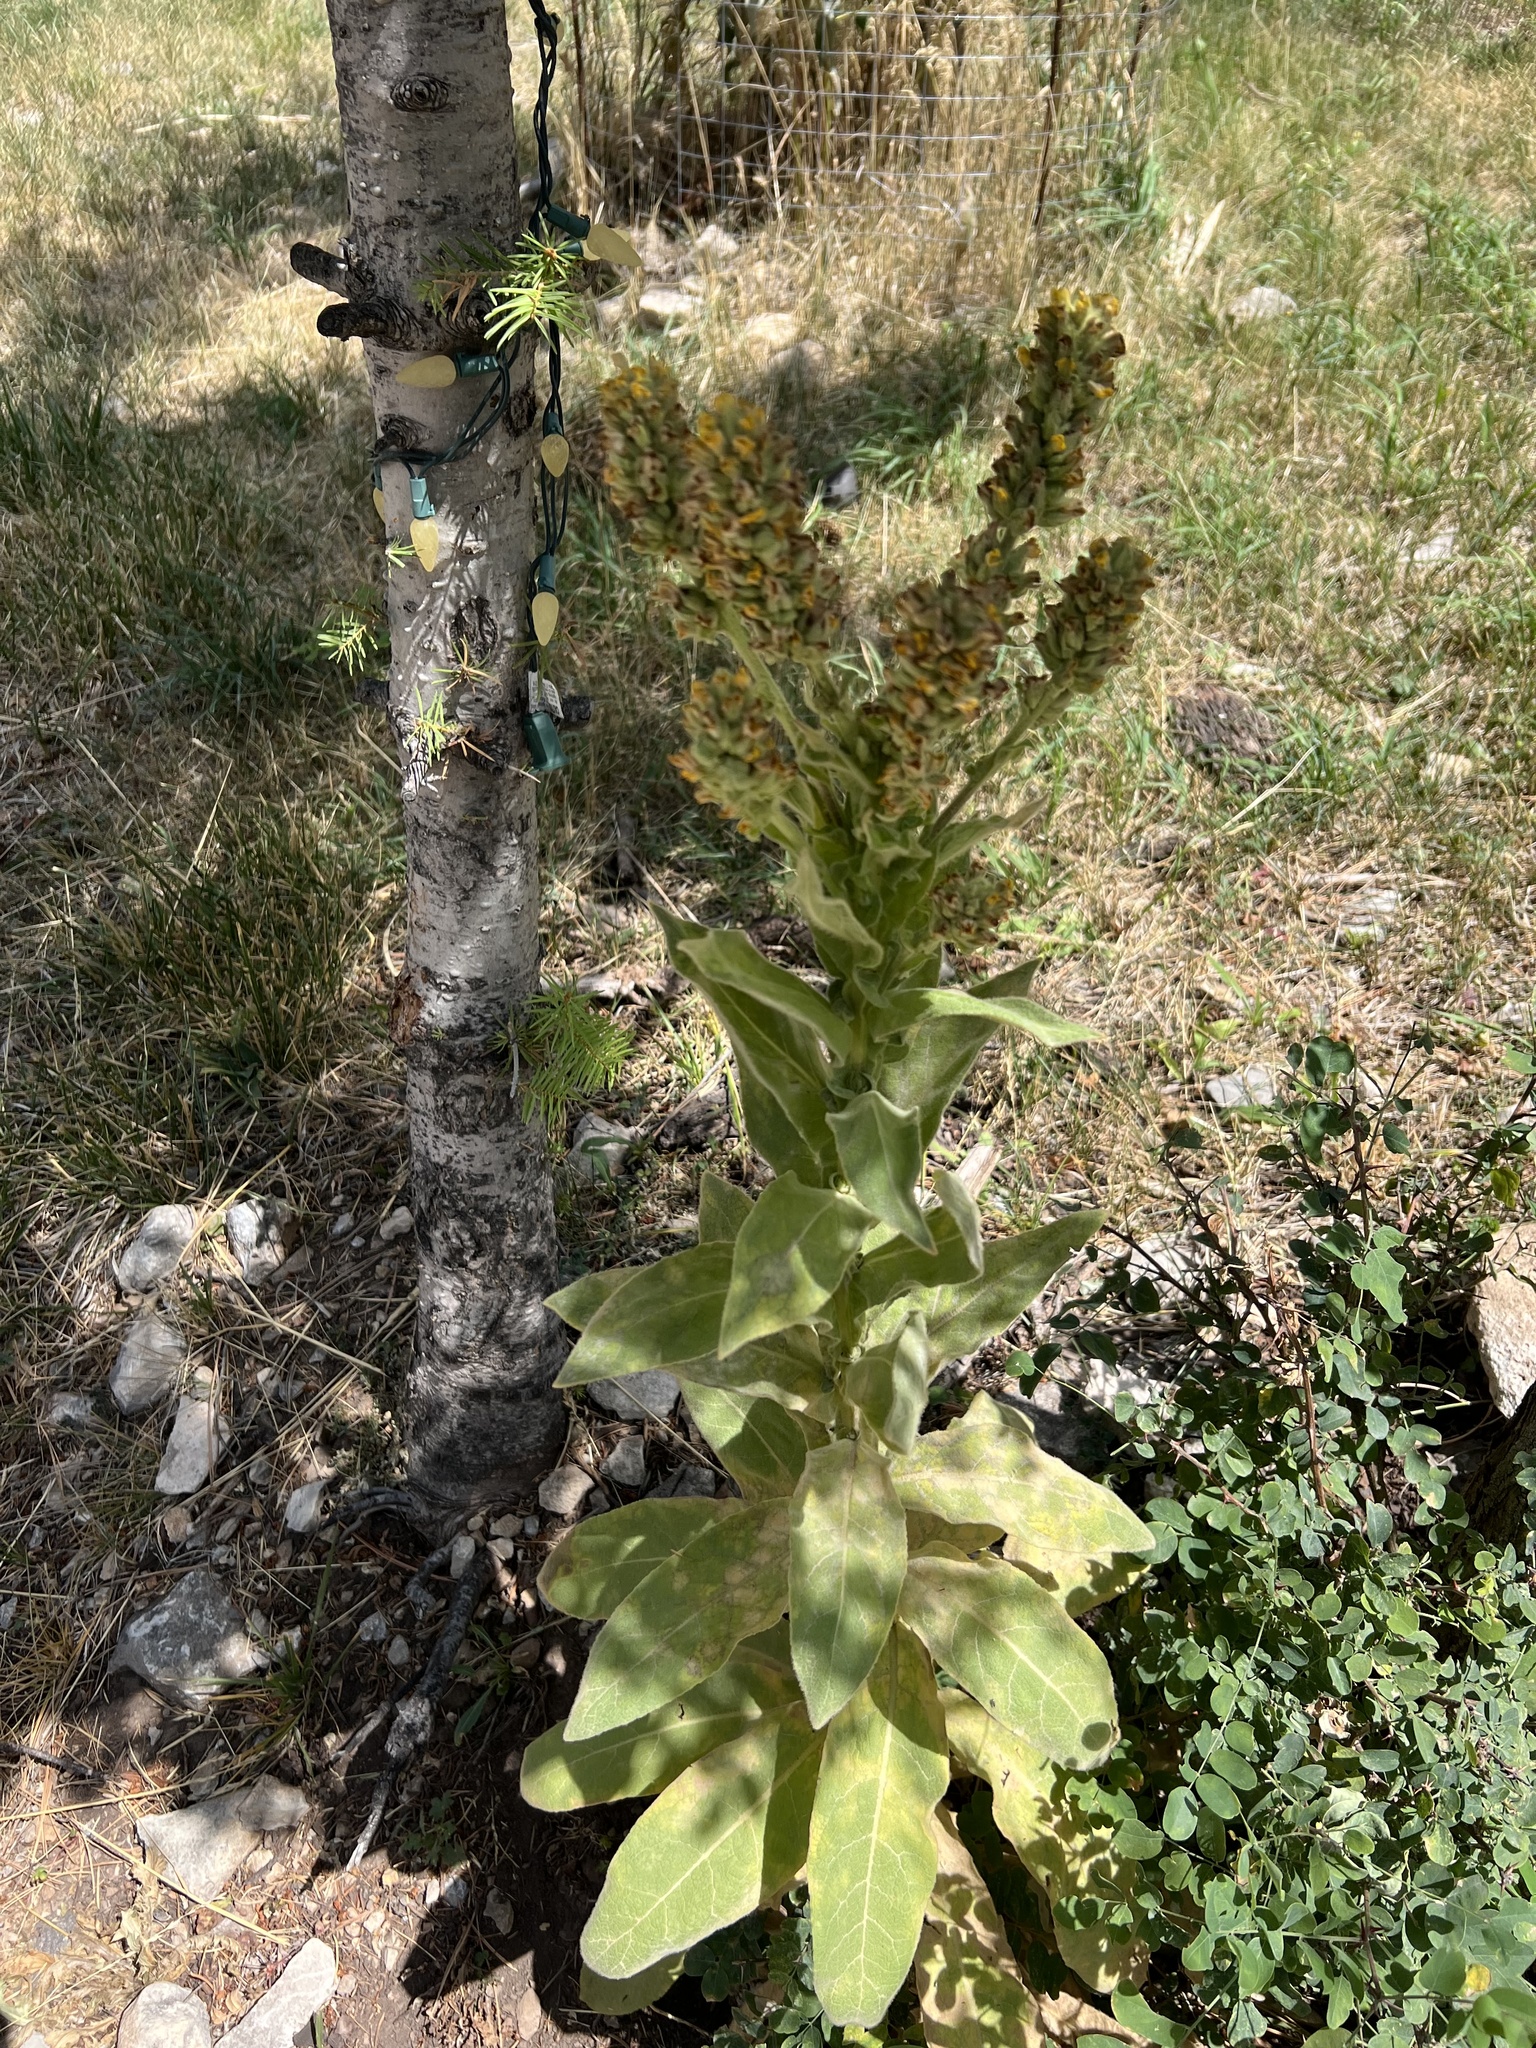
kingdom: Plantae
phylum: Tracheophyta
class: Magnoliopsida
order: Lamiales
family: Scrophulariaceae
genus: Verbascum
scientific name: Verbascum thapsus
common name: Common mullein
